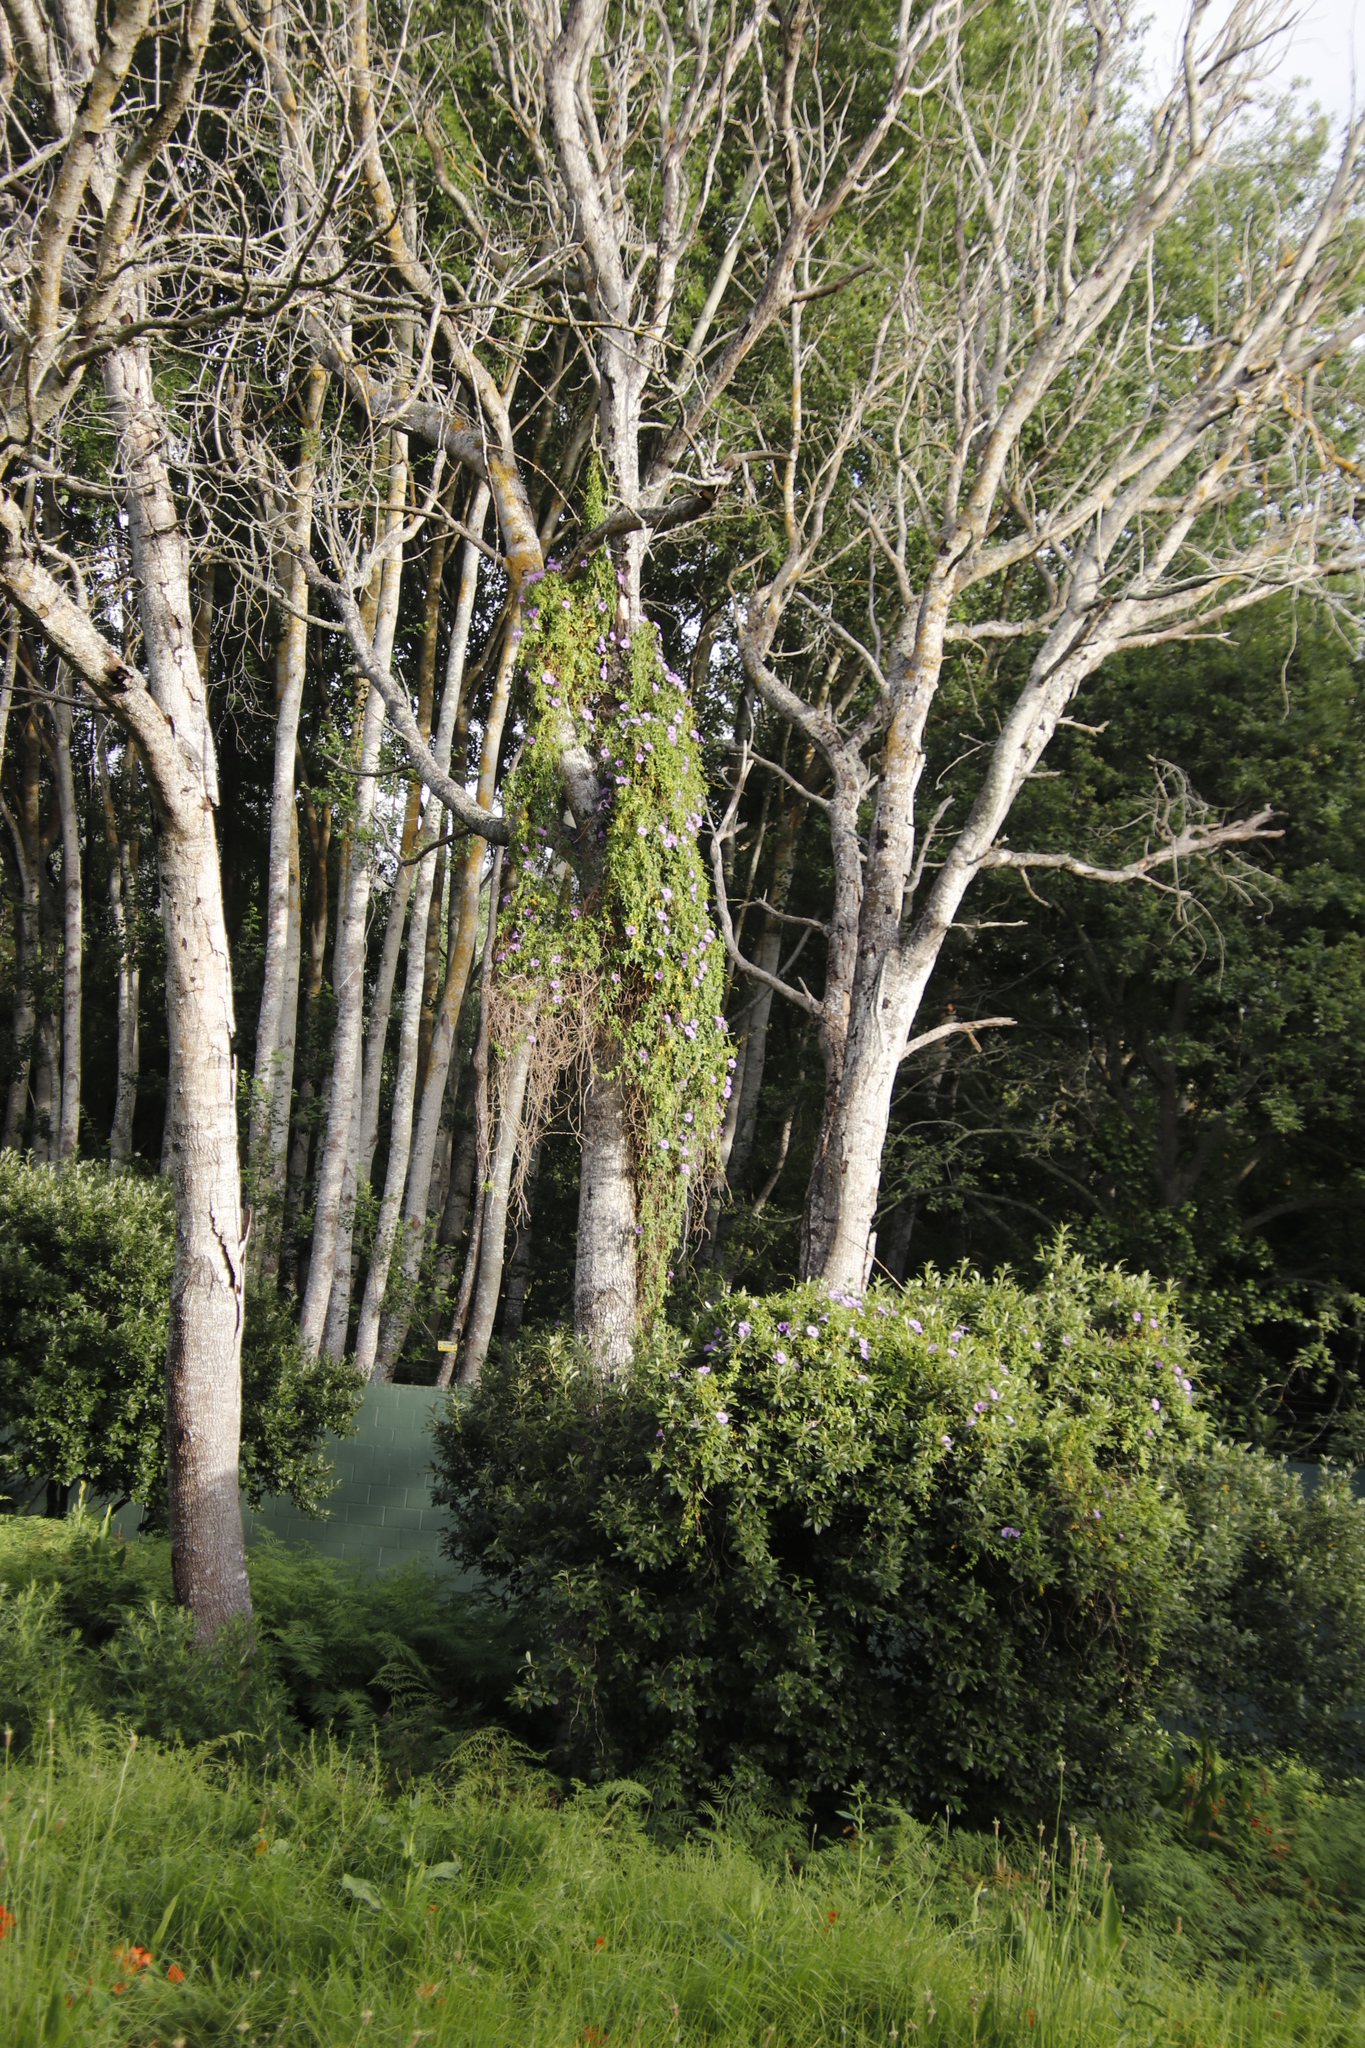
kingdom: Plantae
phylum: Tracheophyta
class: Magnoliopsida
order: Solanales
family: Convolvulaceae
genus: Ipomoea
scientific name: Ipomoea cairica
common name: Mile a minute vine
